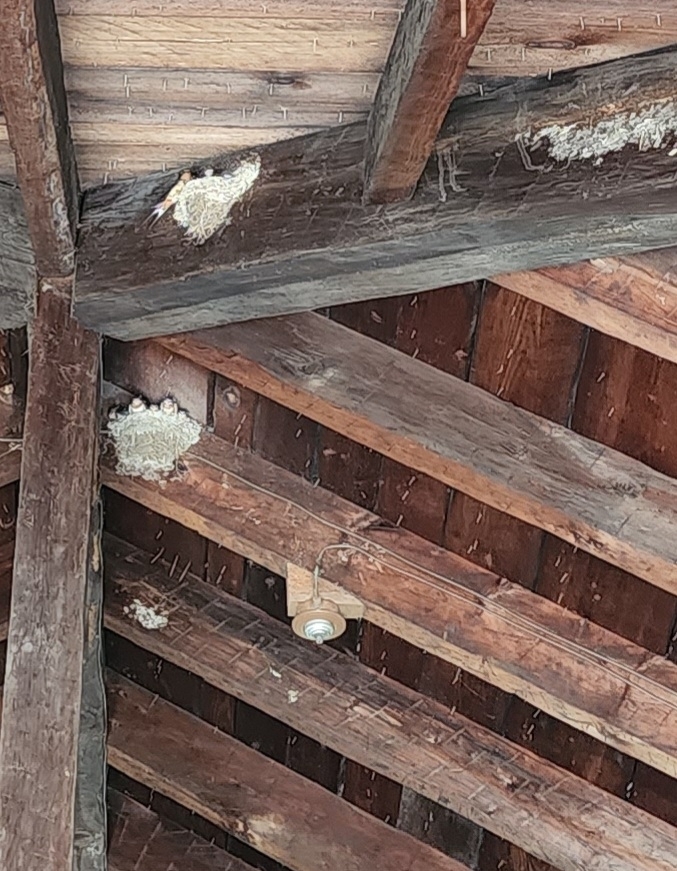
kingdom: Animalia
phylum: Chordata
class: Aves
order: Passeriformes
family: Hirundinidae
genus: Hirundo
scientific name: Hirundo rustica
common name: Barn swallow
